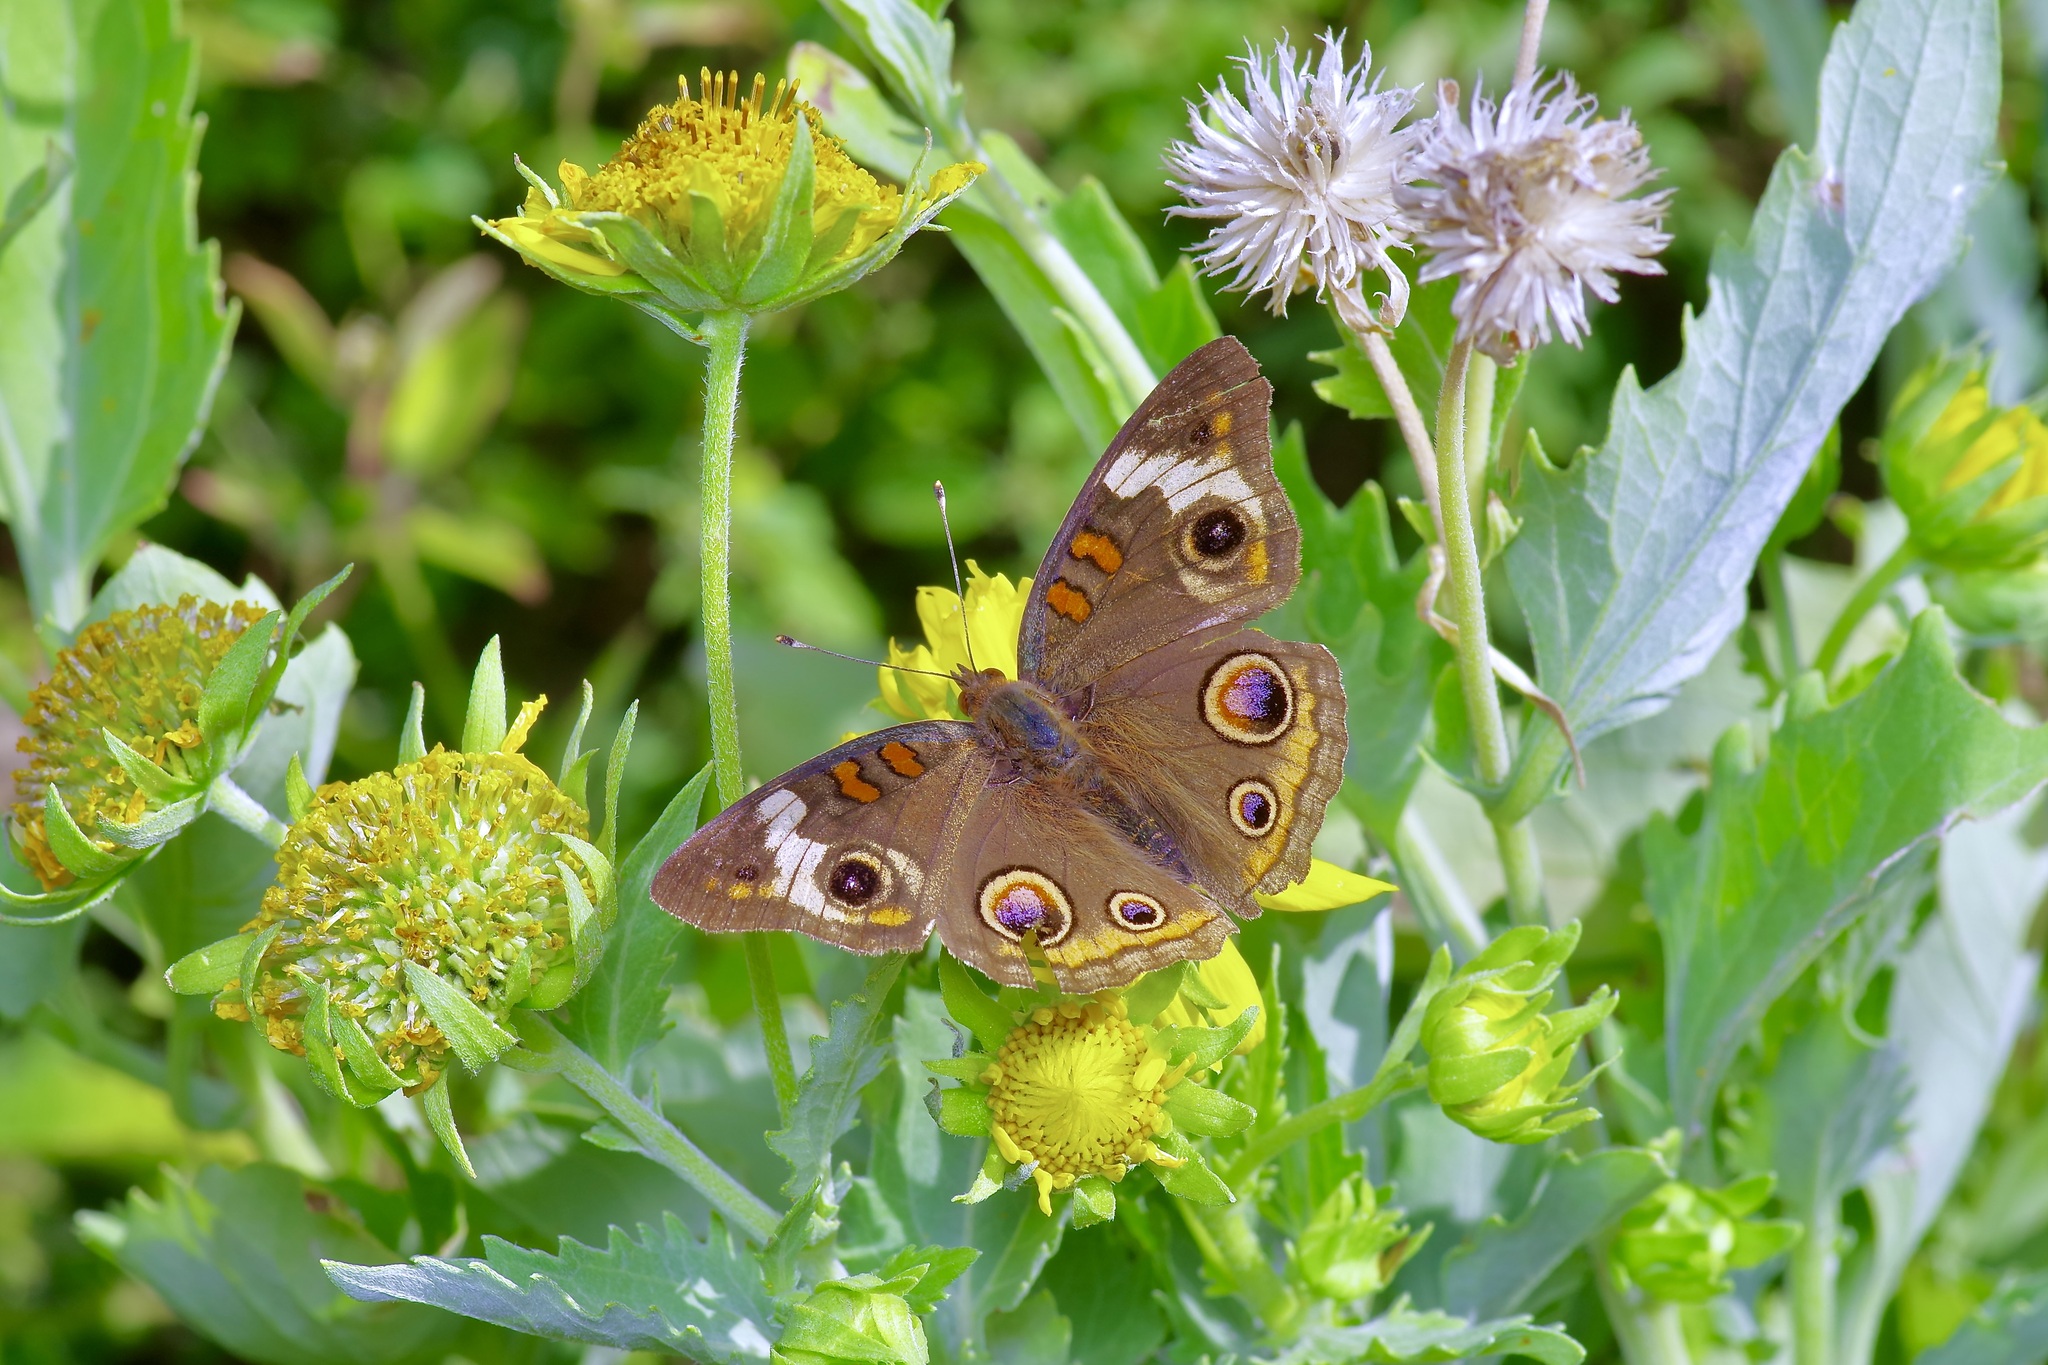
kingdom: Animalia
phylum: Arthropoda
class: Insecta
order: Lepidoptera
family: Nymphalidae
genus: Junonia
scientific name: Junonia coenia
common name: Common buckeye
